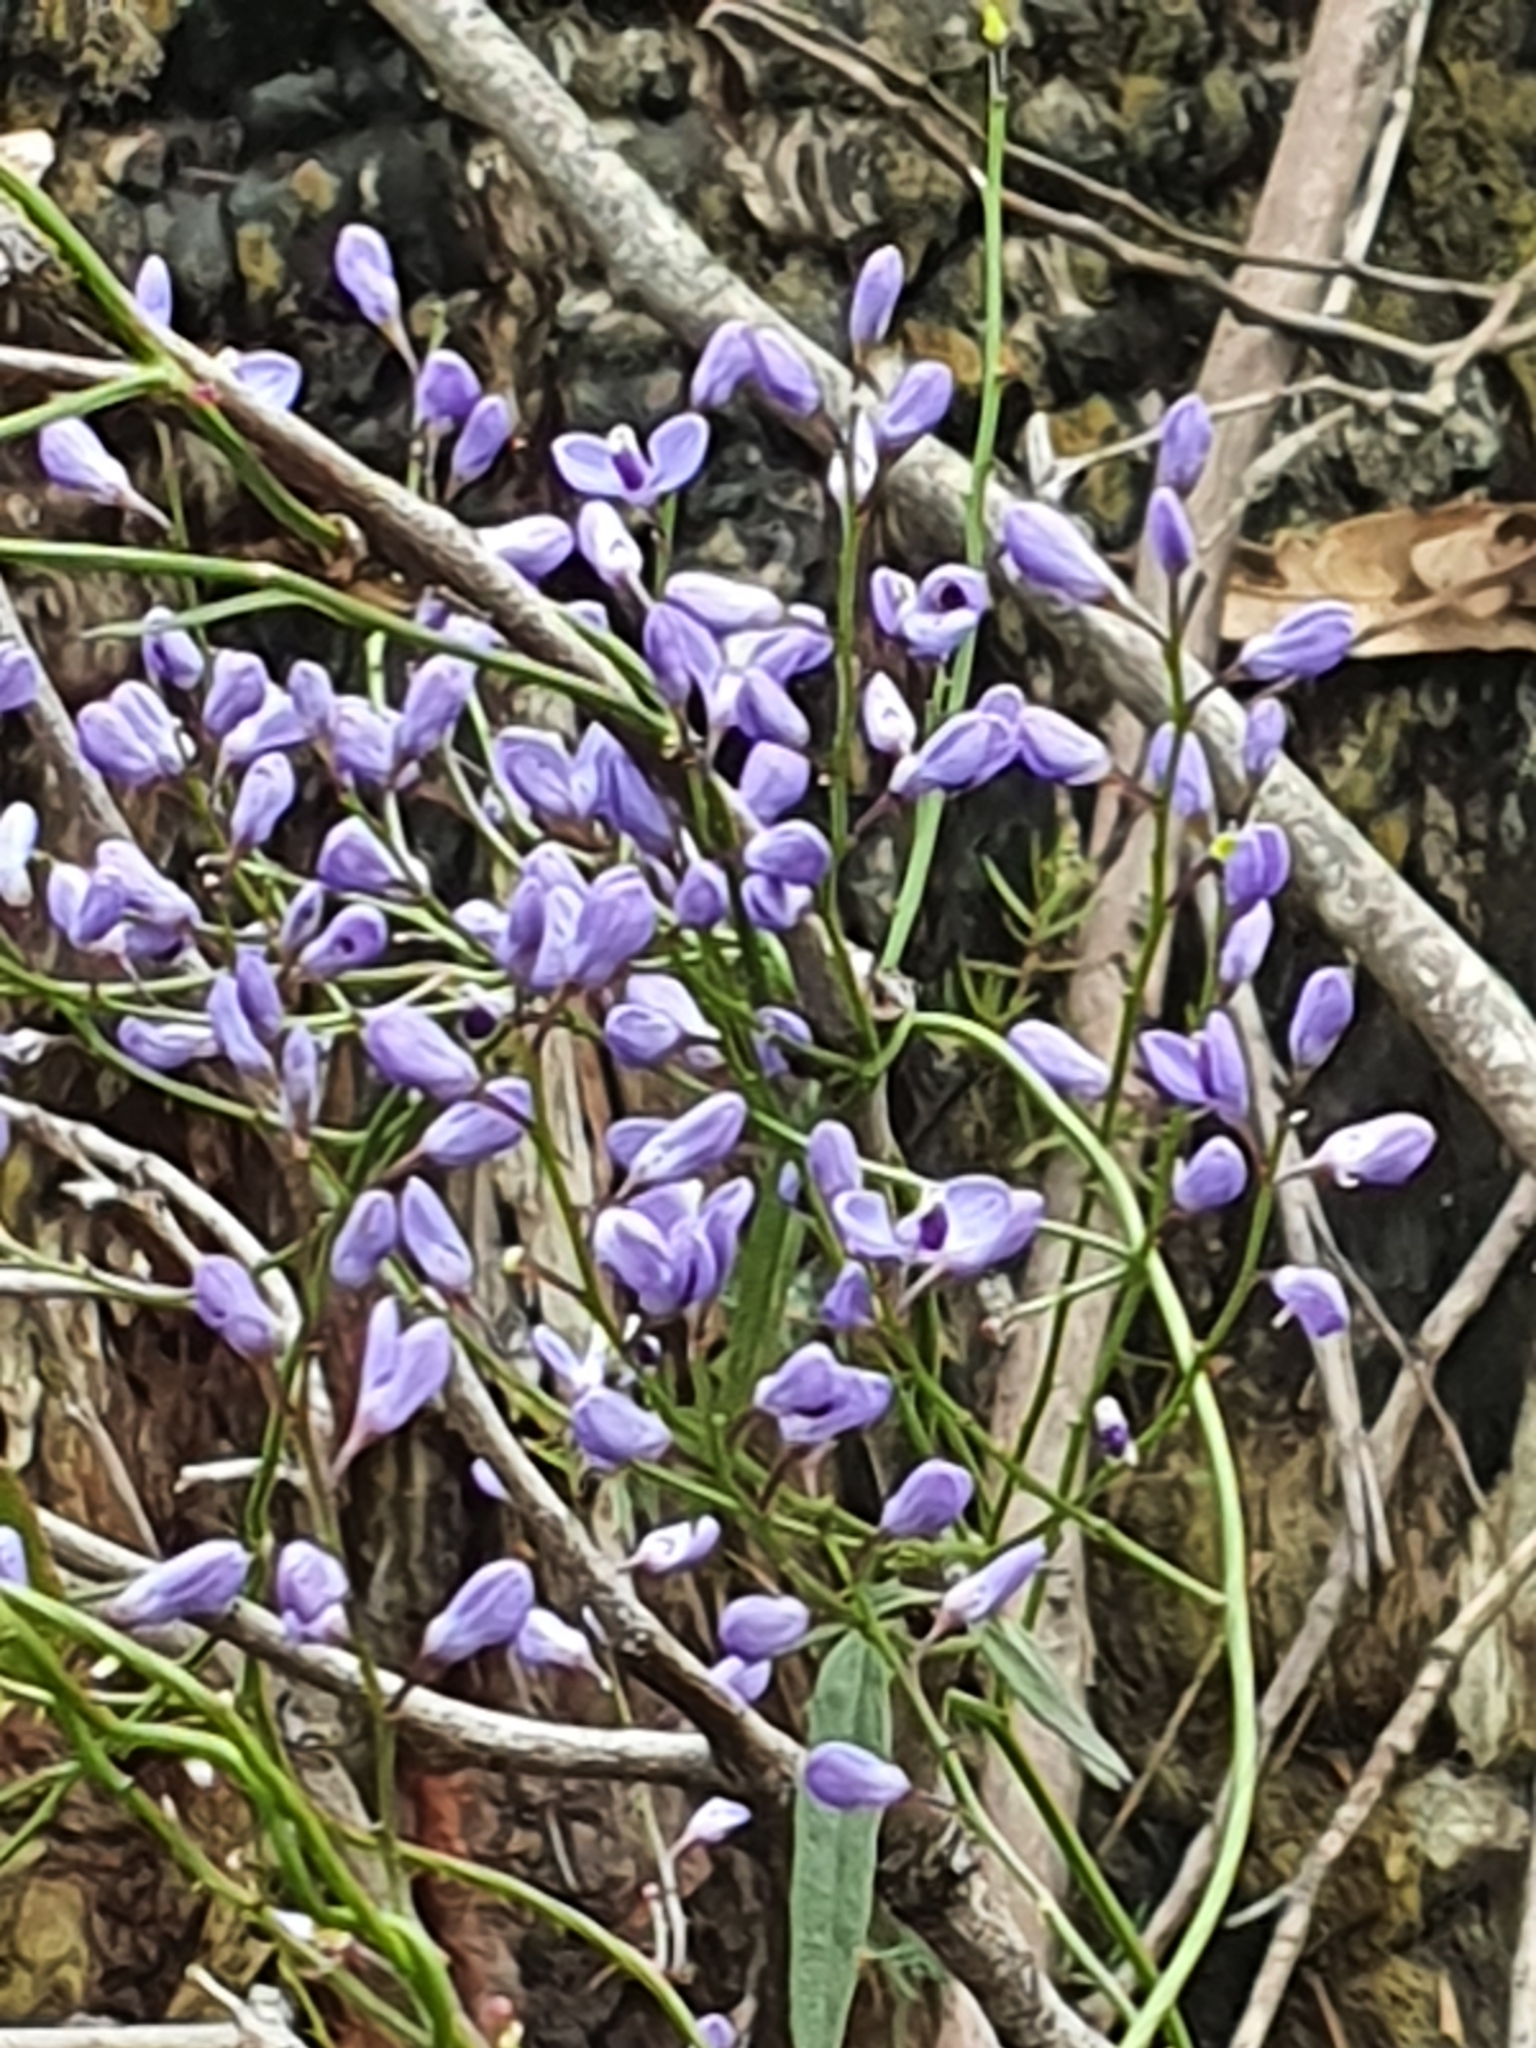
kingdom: Plantae
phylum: Tracheophyta
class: Magnoliopsida
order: Fabales
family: Polygalaceae
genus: Comesperma
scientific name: Comesperma volubile
